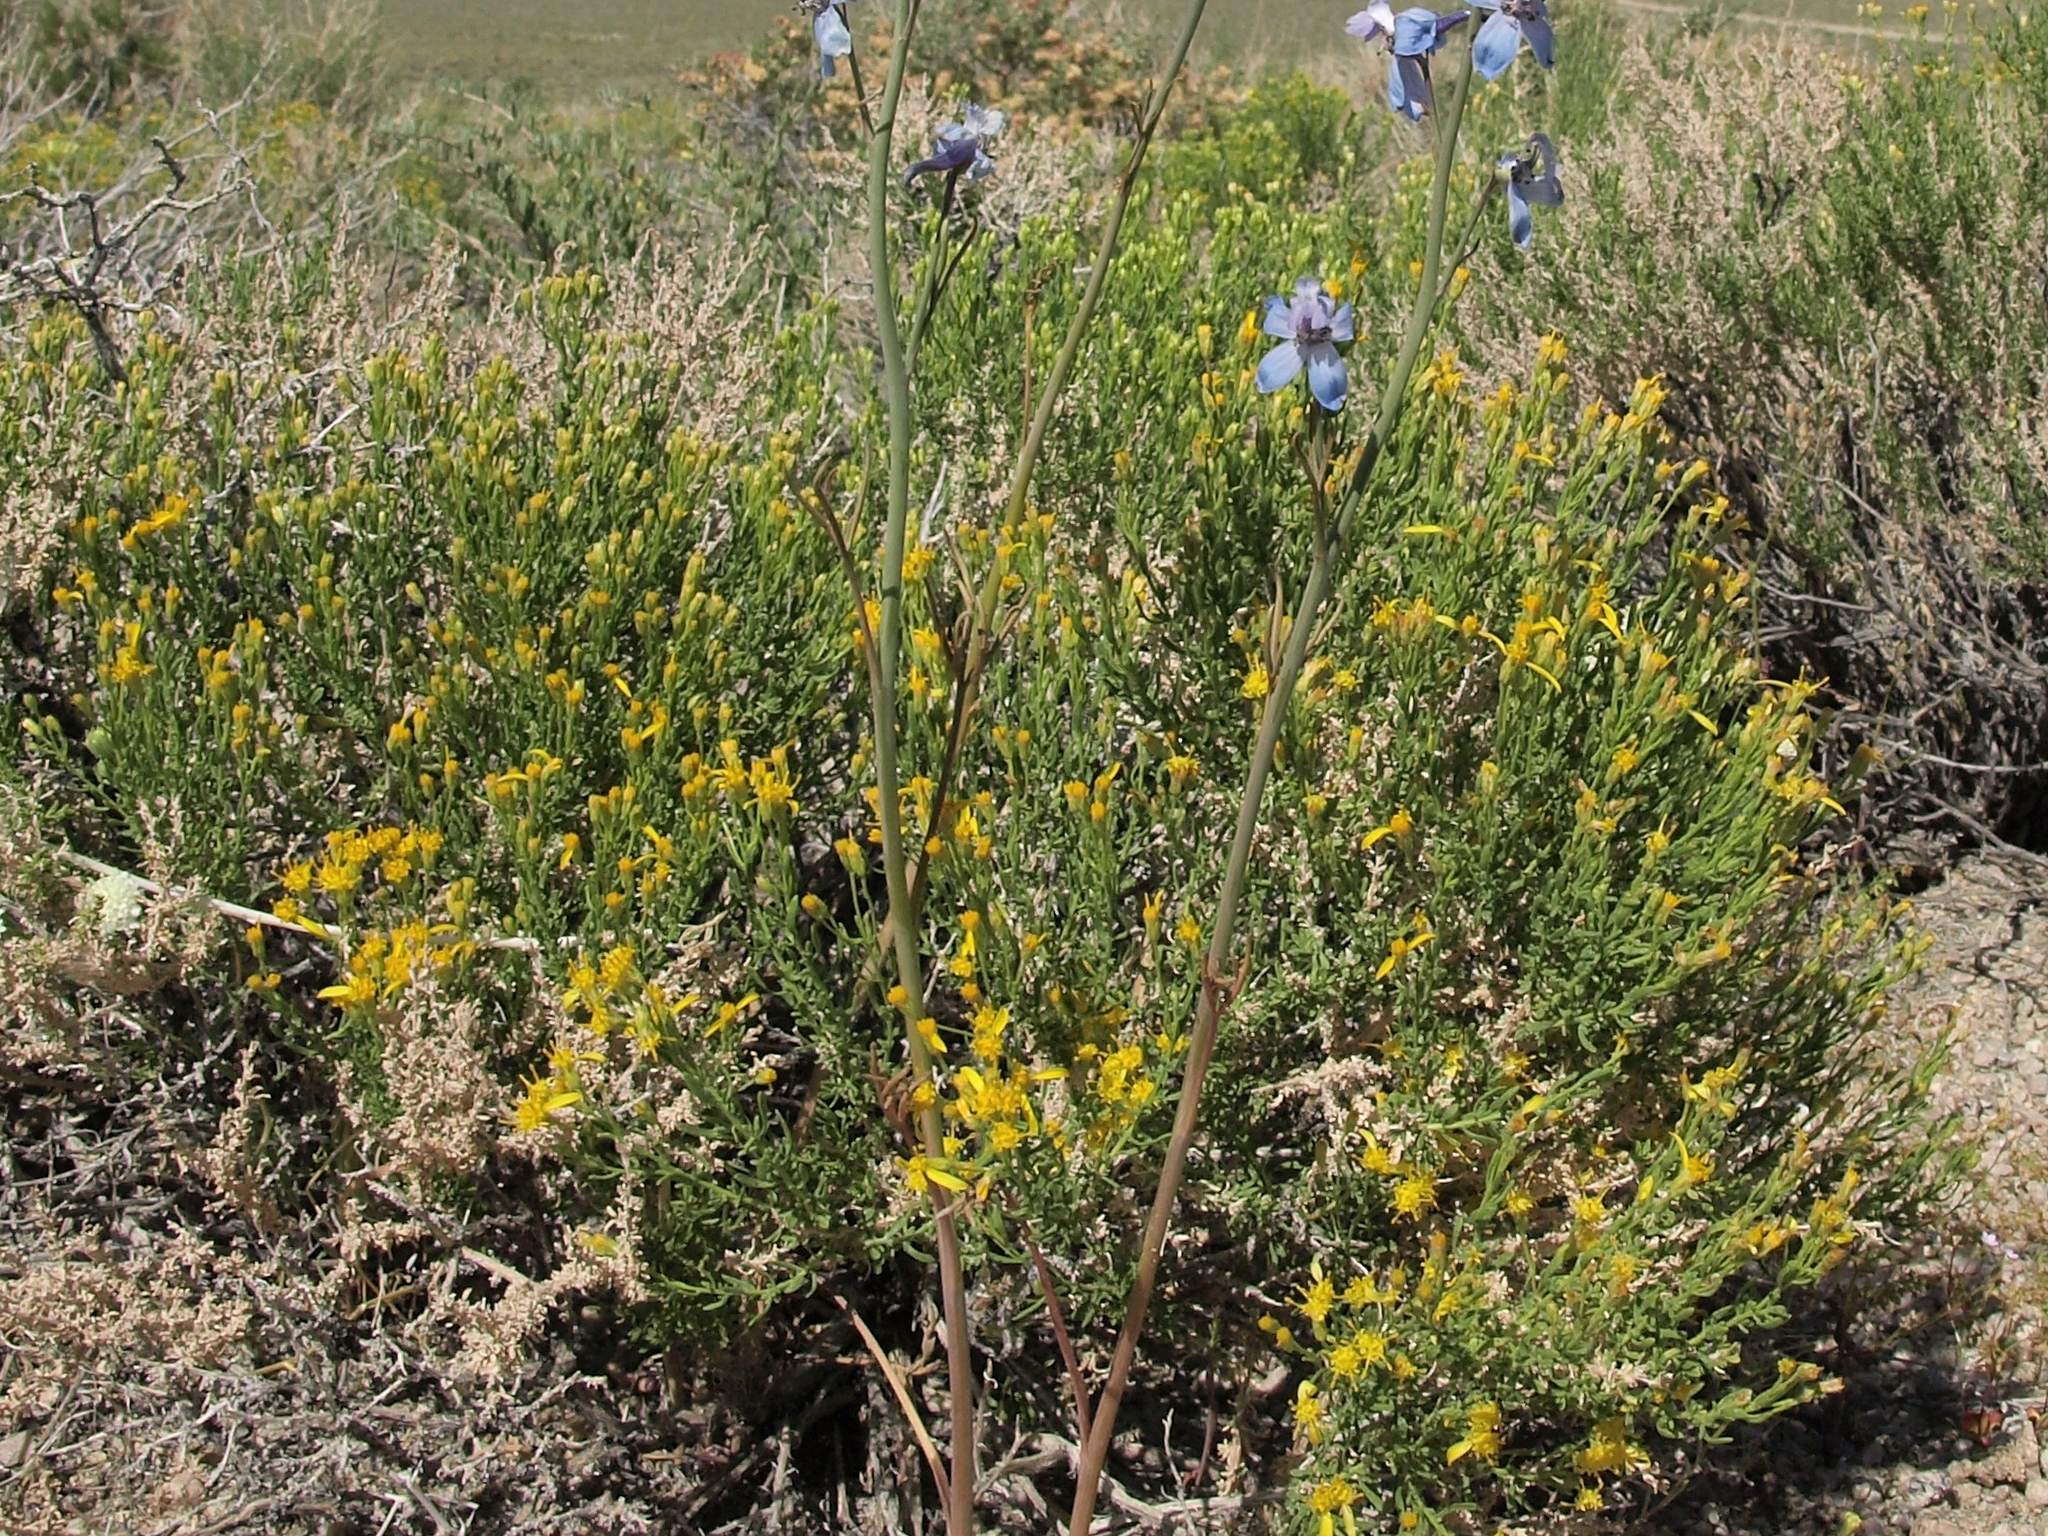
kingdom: Plantae
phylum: Tracheophyta
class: Magnoliopsida
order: Asterales
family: Asteraceae
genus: Ericameria
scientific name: Ericameria cooperi
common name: Cooper's goldenbush
